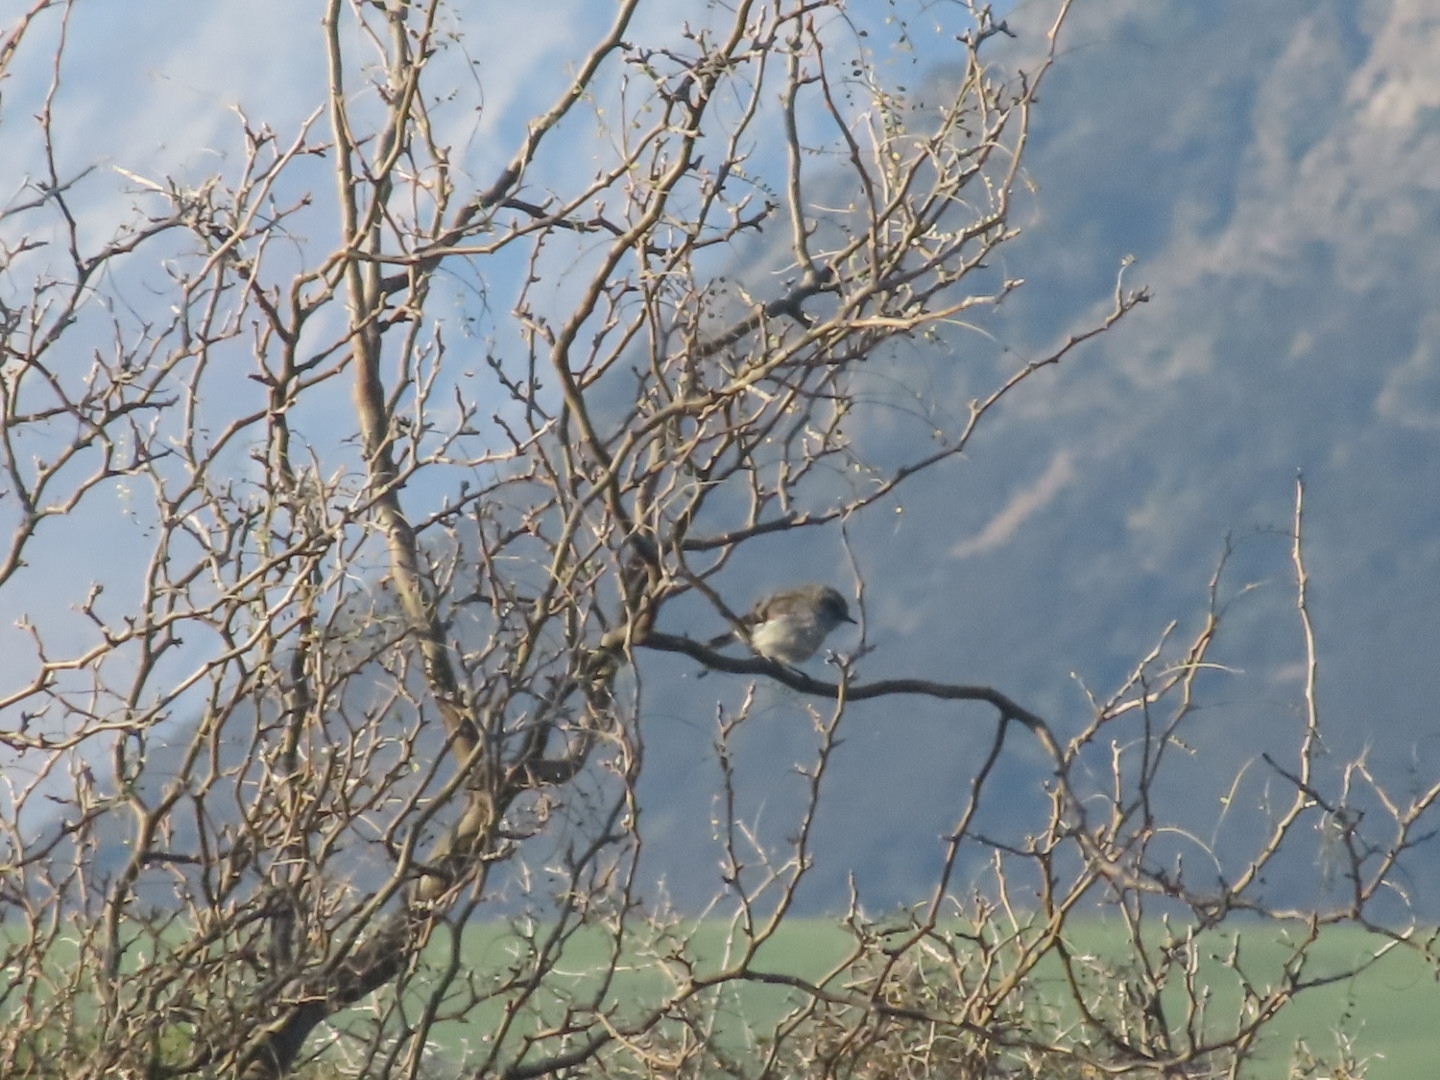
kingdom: Animalia
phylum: Chordata
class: Aves
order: Passeriformes
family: Acanthizidae
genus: Gerygone
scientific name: Gerygone igata
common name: Grey gerygone
